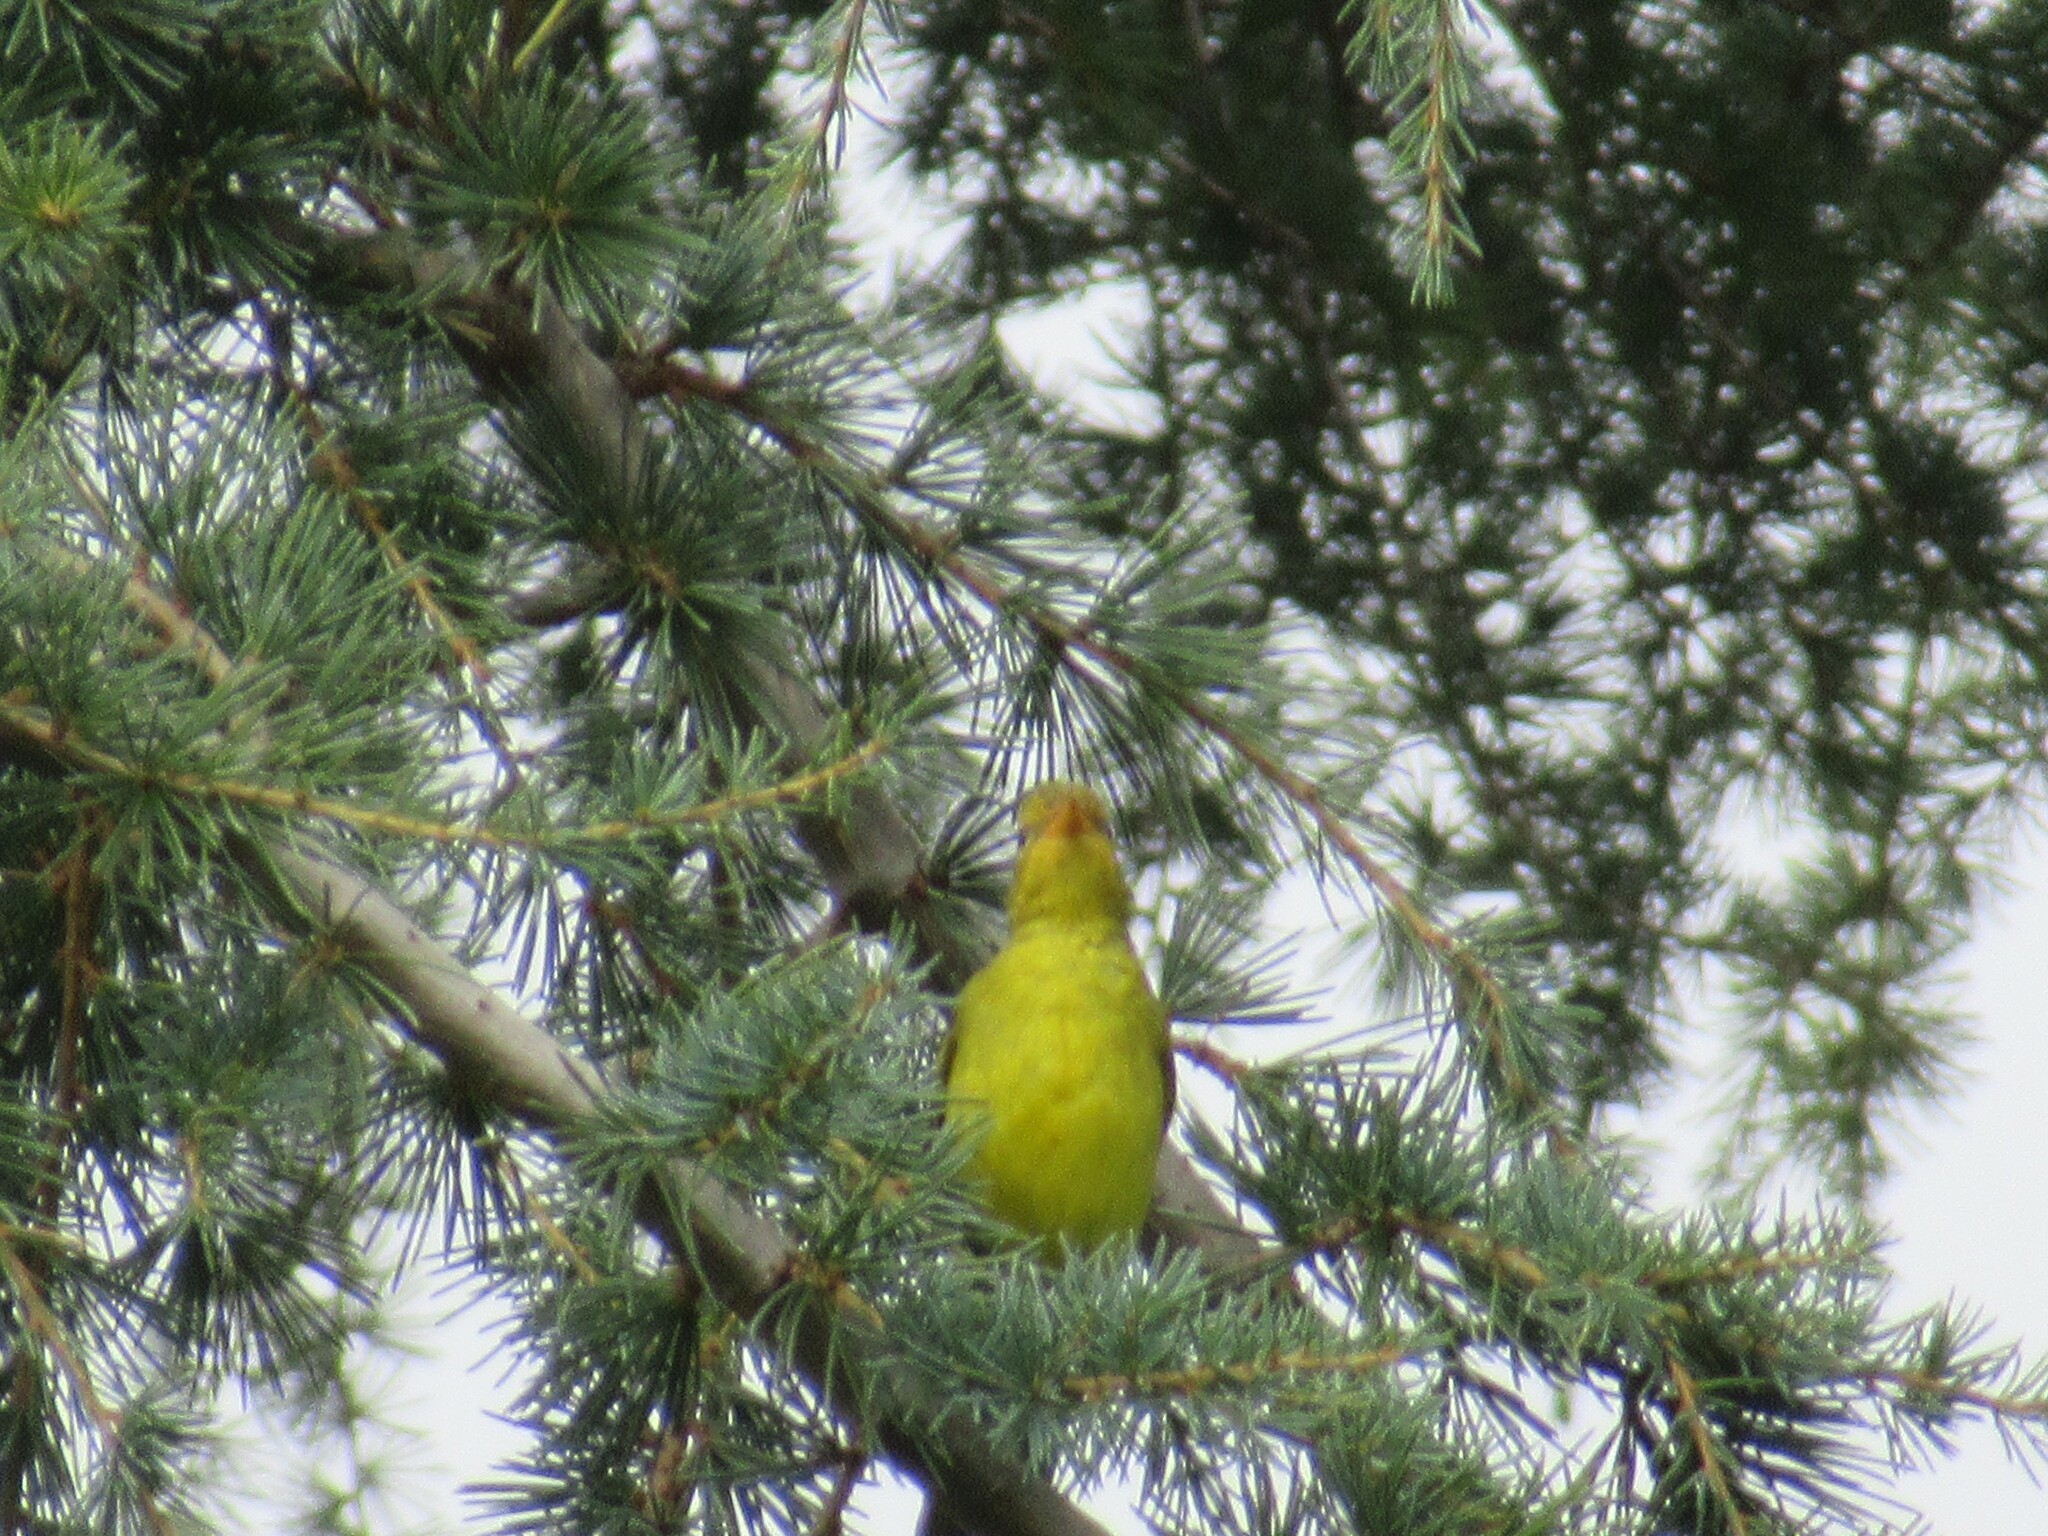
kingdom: Animalia
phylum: Chordata
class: Aves
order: Passeriformes
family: Cardinalidae
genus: Piranga
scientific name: Piranga ludoviciana
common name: Western tanager
